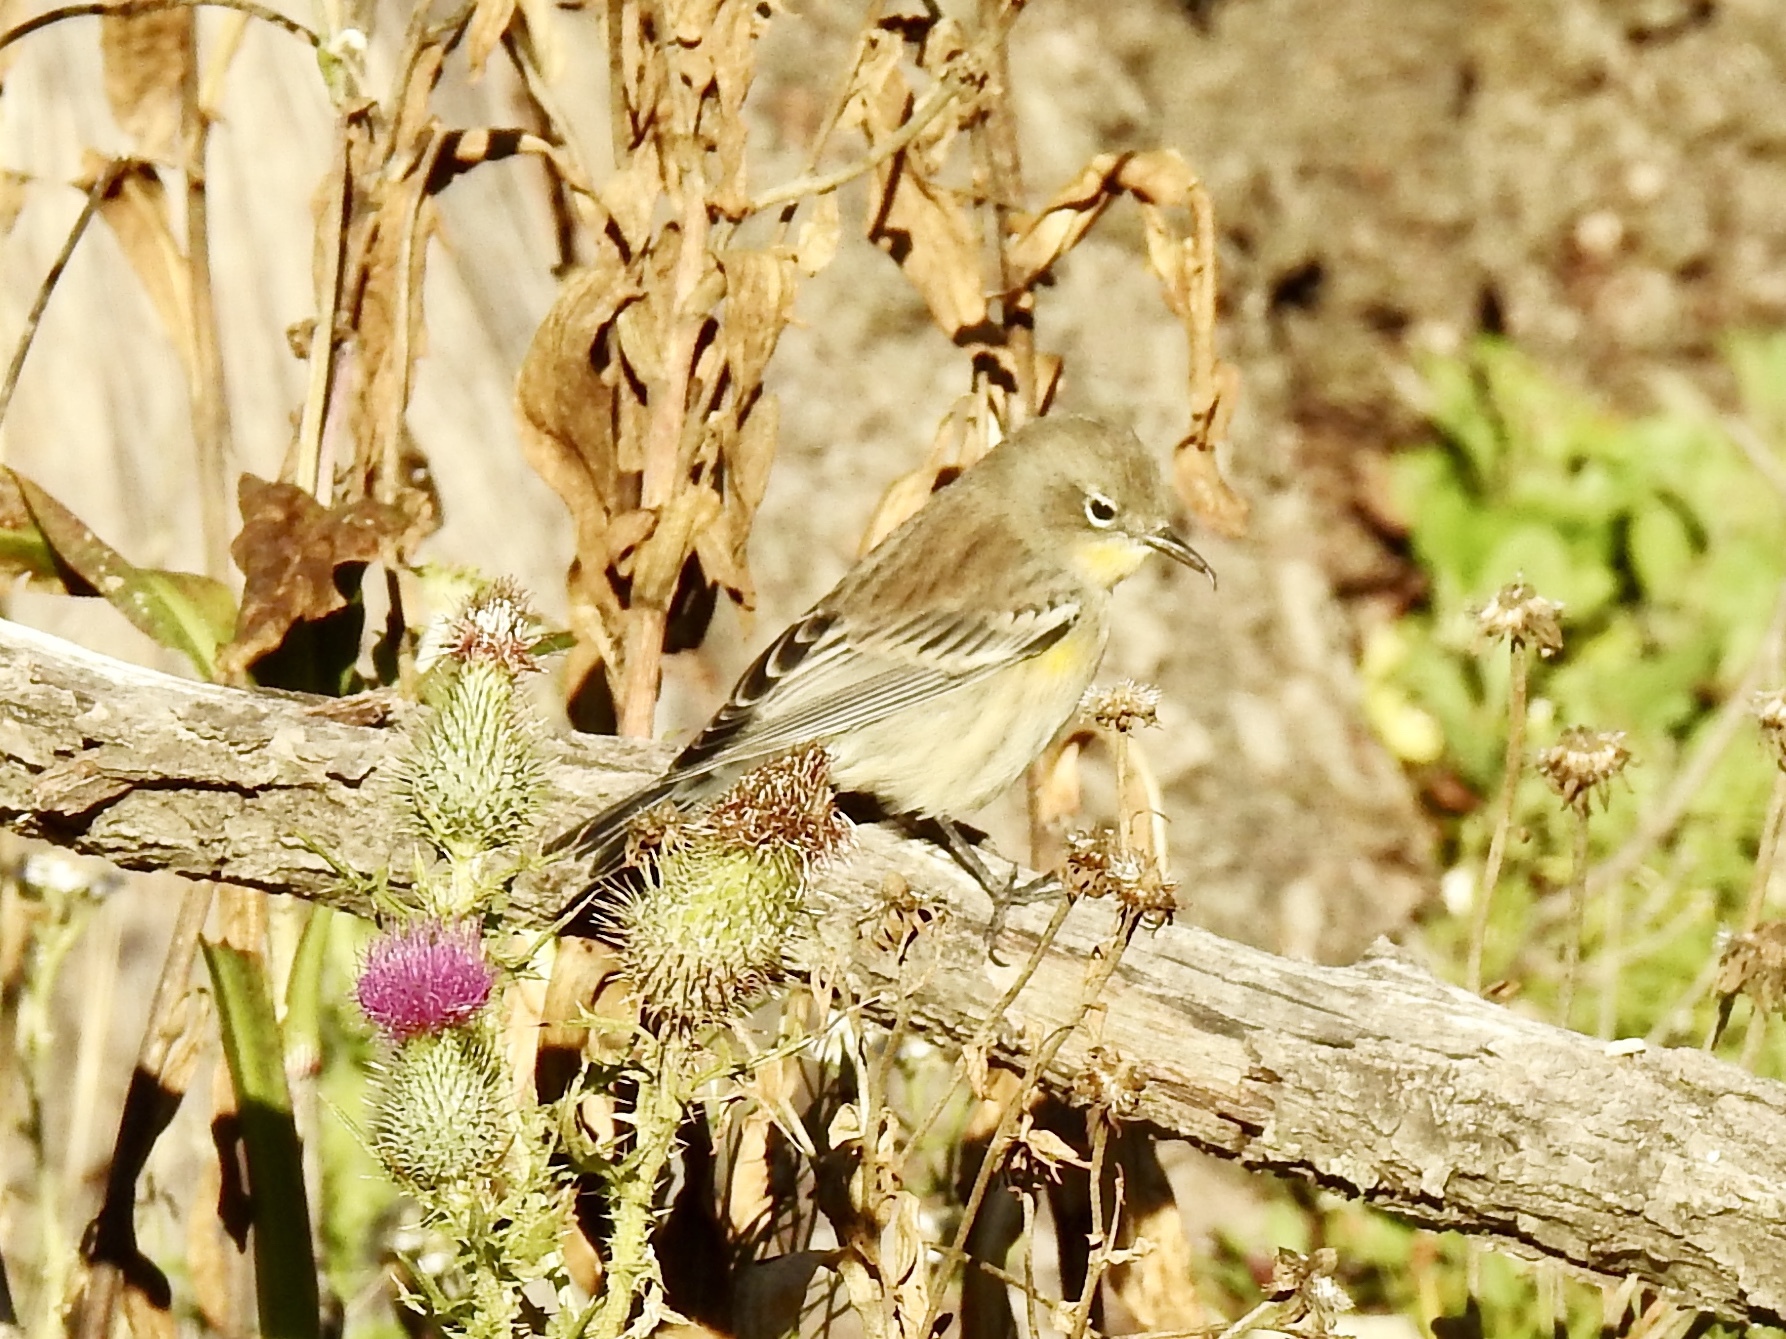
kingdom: Animalia
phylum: Chordata
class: Aves
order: Passeriformes
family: Parulidae
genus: Setophaga
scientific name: Setophaga coronata
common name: Myrtle warbler
